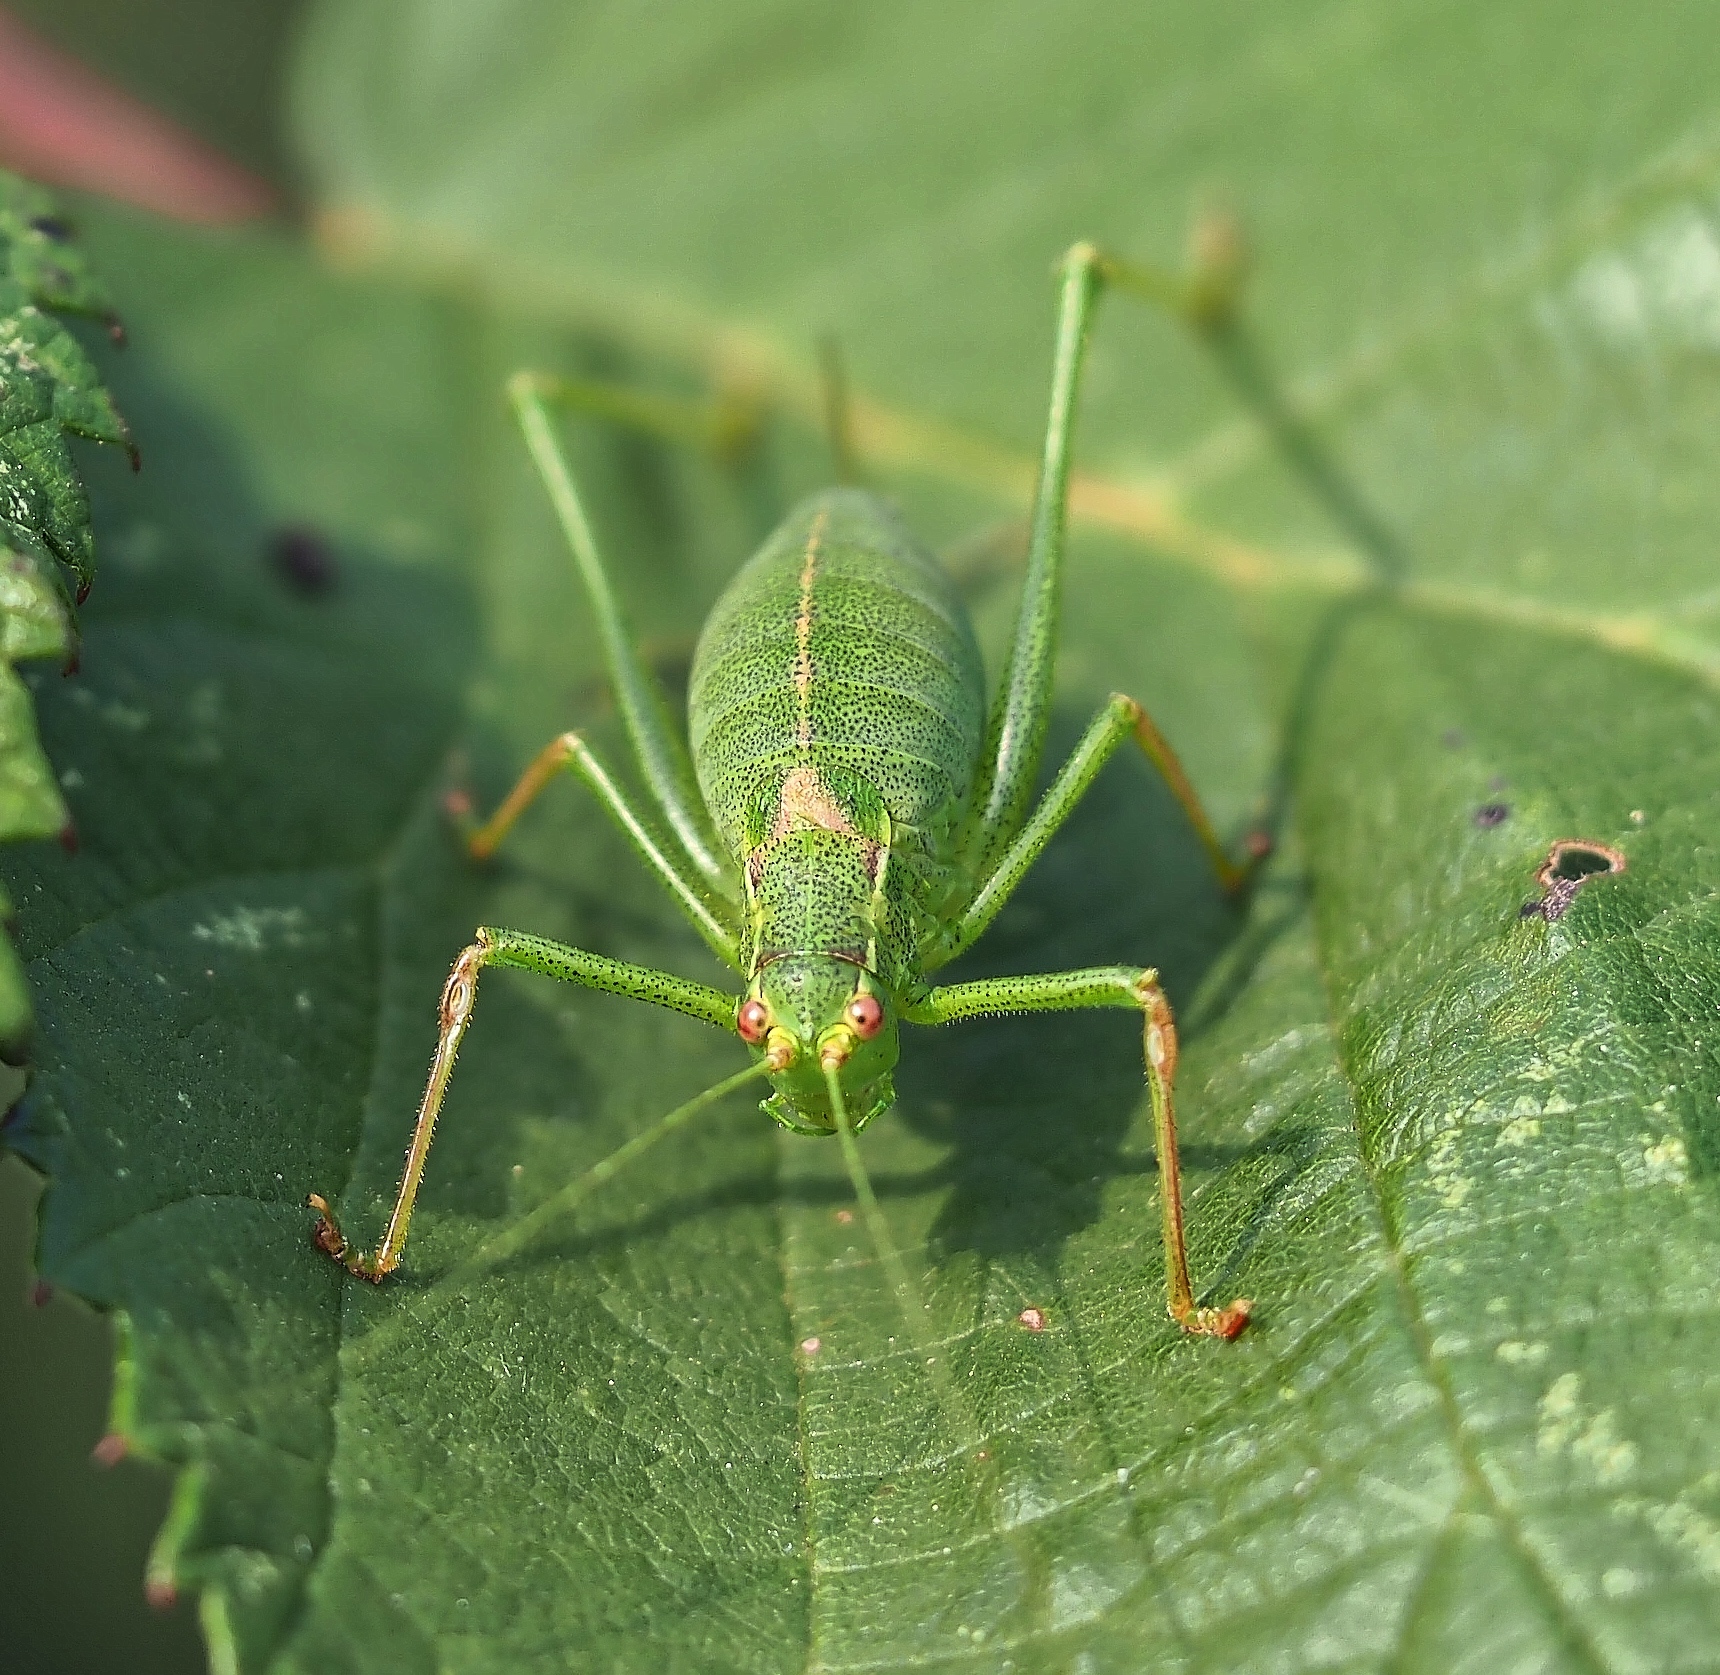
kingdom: Animalia
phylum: Arthropoda
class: Insecta
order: Orthoptera
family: Tettigoniidae
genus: Leptophyes
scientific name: Leptophyes punctatissima
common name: Speckled bush-cricket
